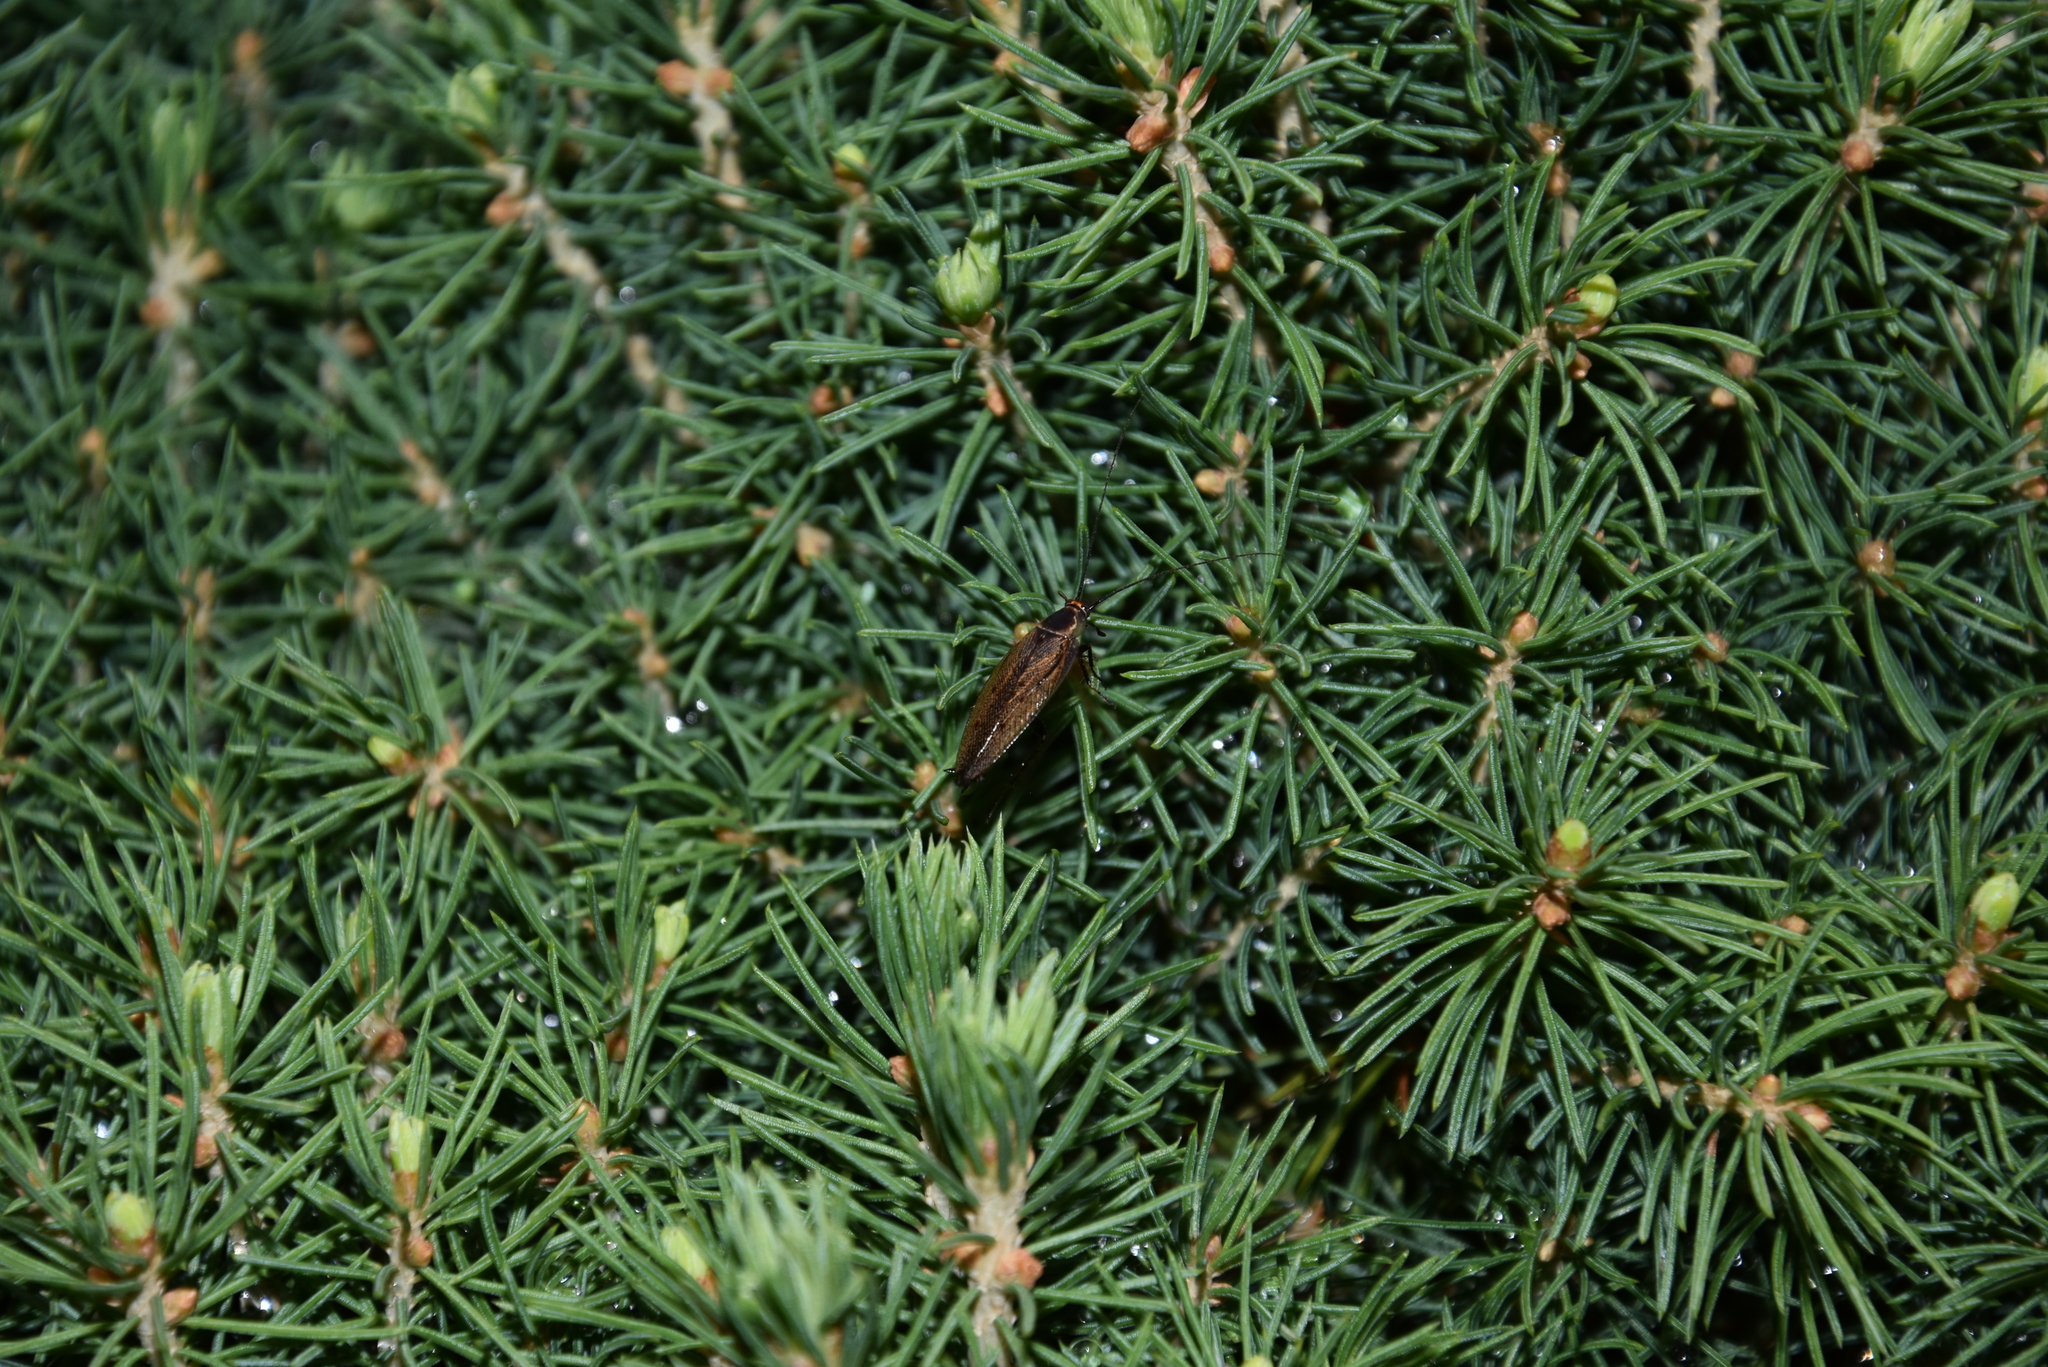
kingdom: Animalia
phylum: Arthropoda
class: Insecta
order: Blattodea
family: Ectobiidae
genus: Ectobius
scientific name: Ectobius sylvestris
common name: Forest cockroach
